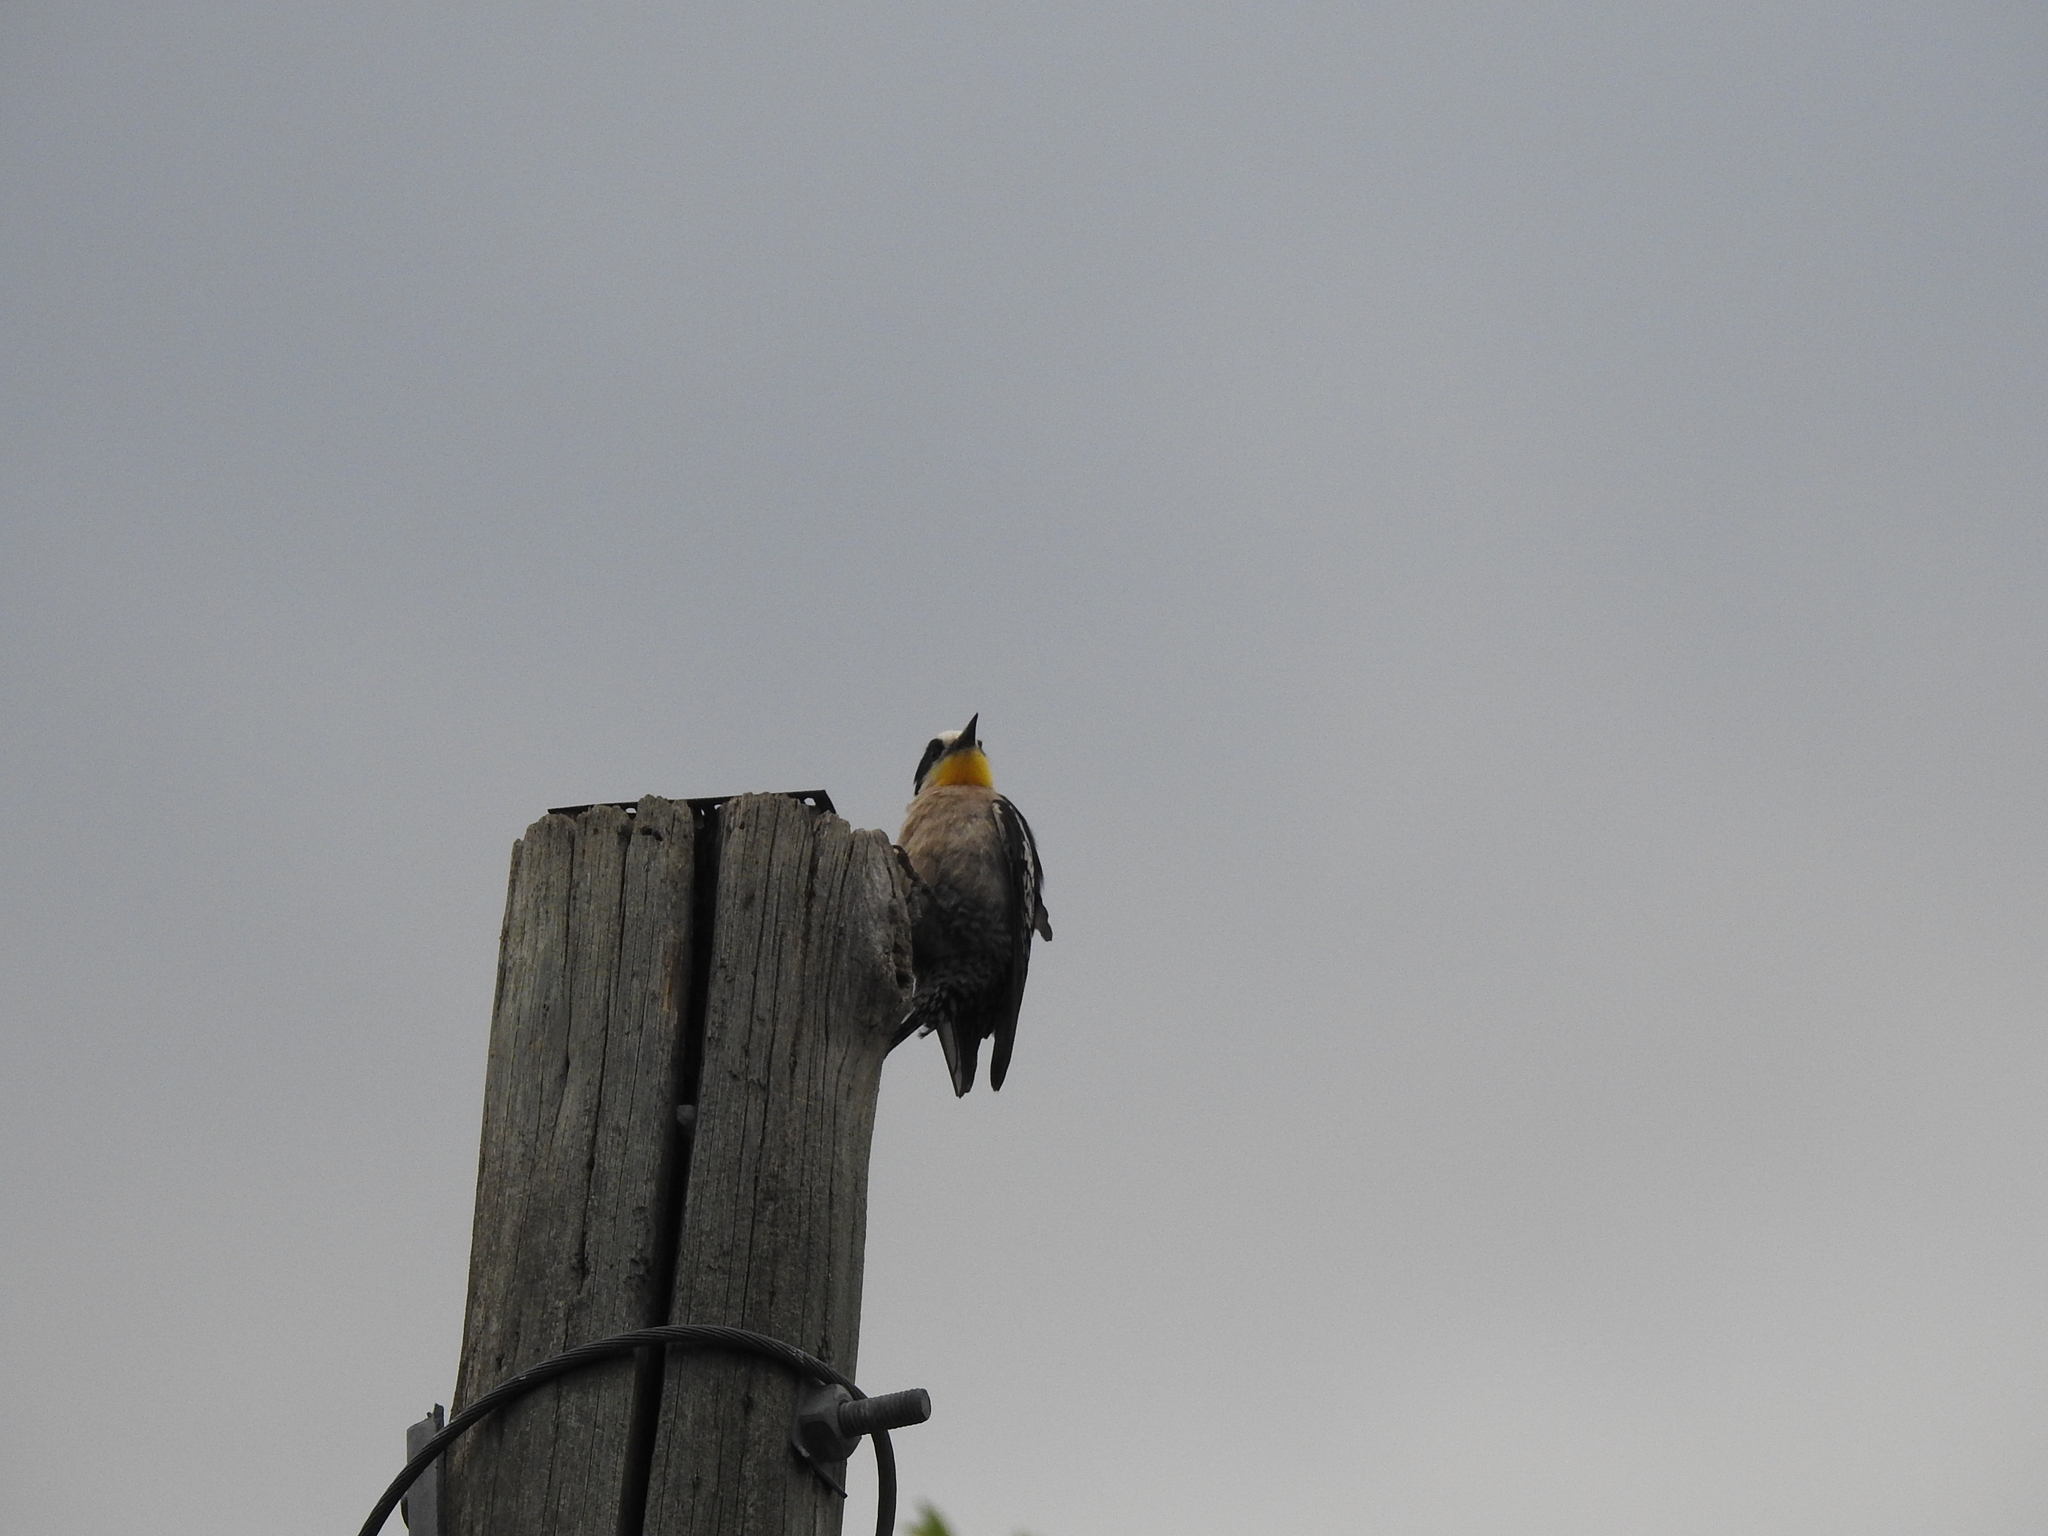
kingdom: Animalia
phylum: Chordata
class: Aves
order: Piciformes
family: Picidae
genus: Melanerpes
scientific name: Melanerpes cactorum
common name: White-fronted woodpecker
